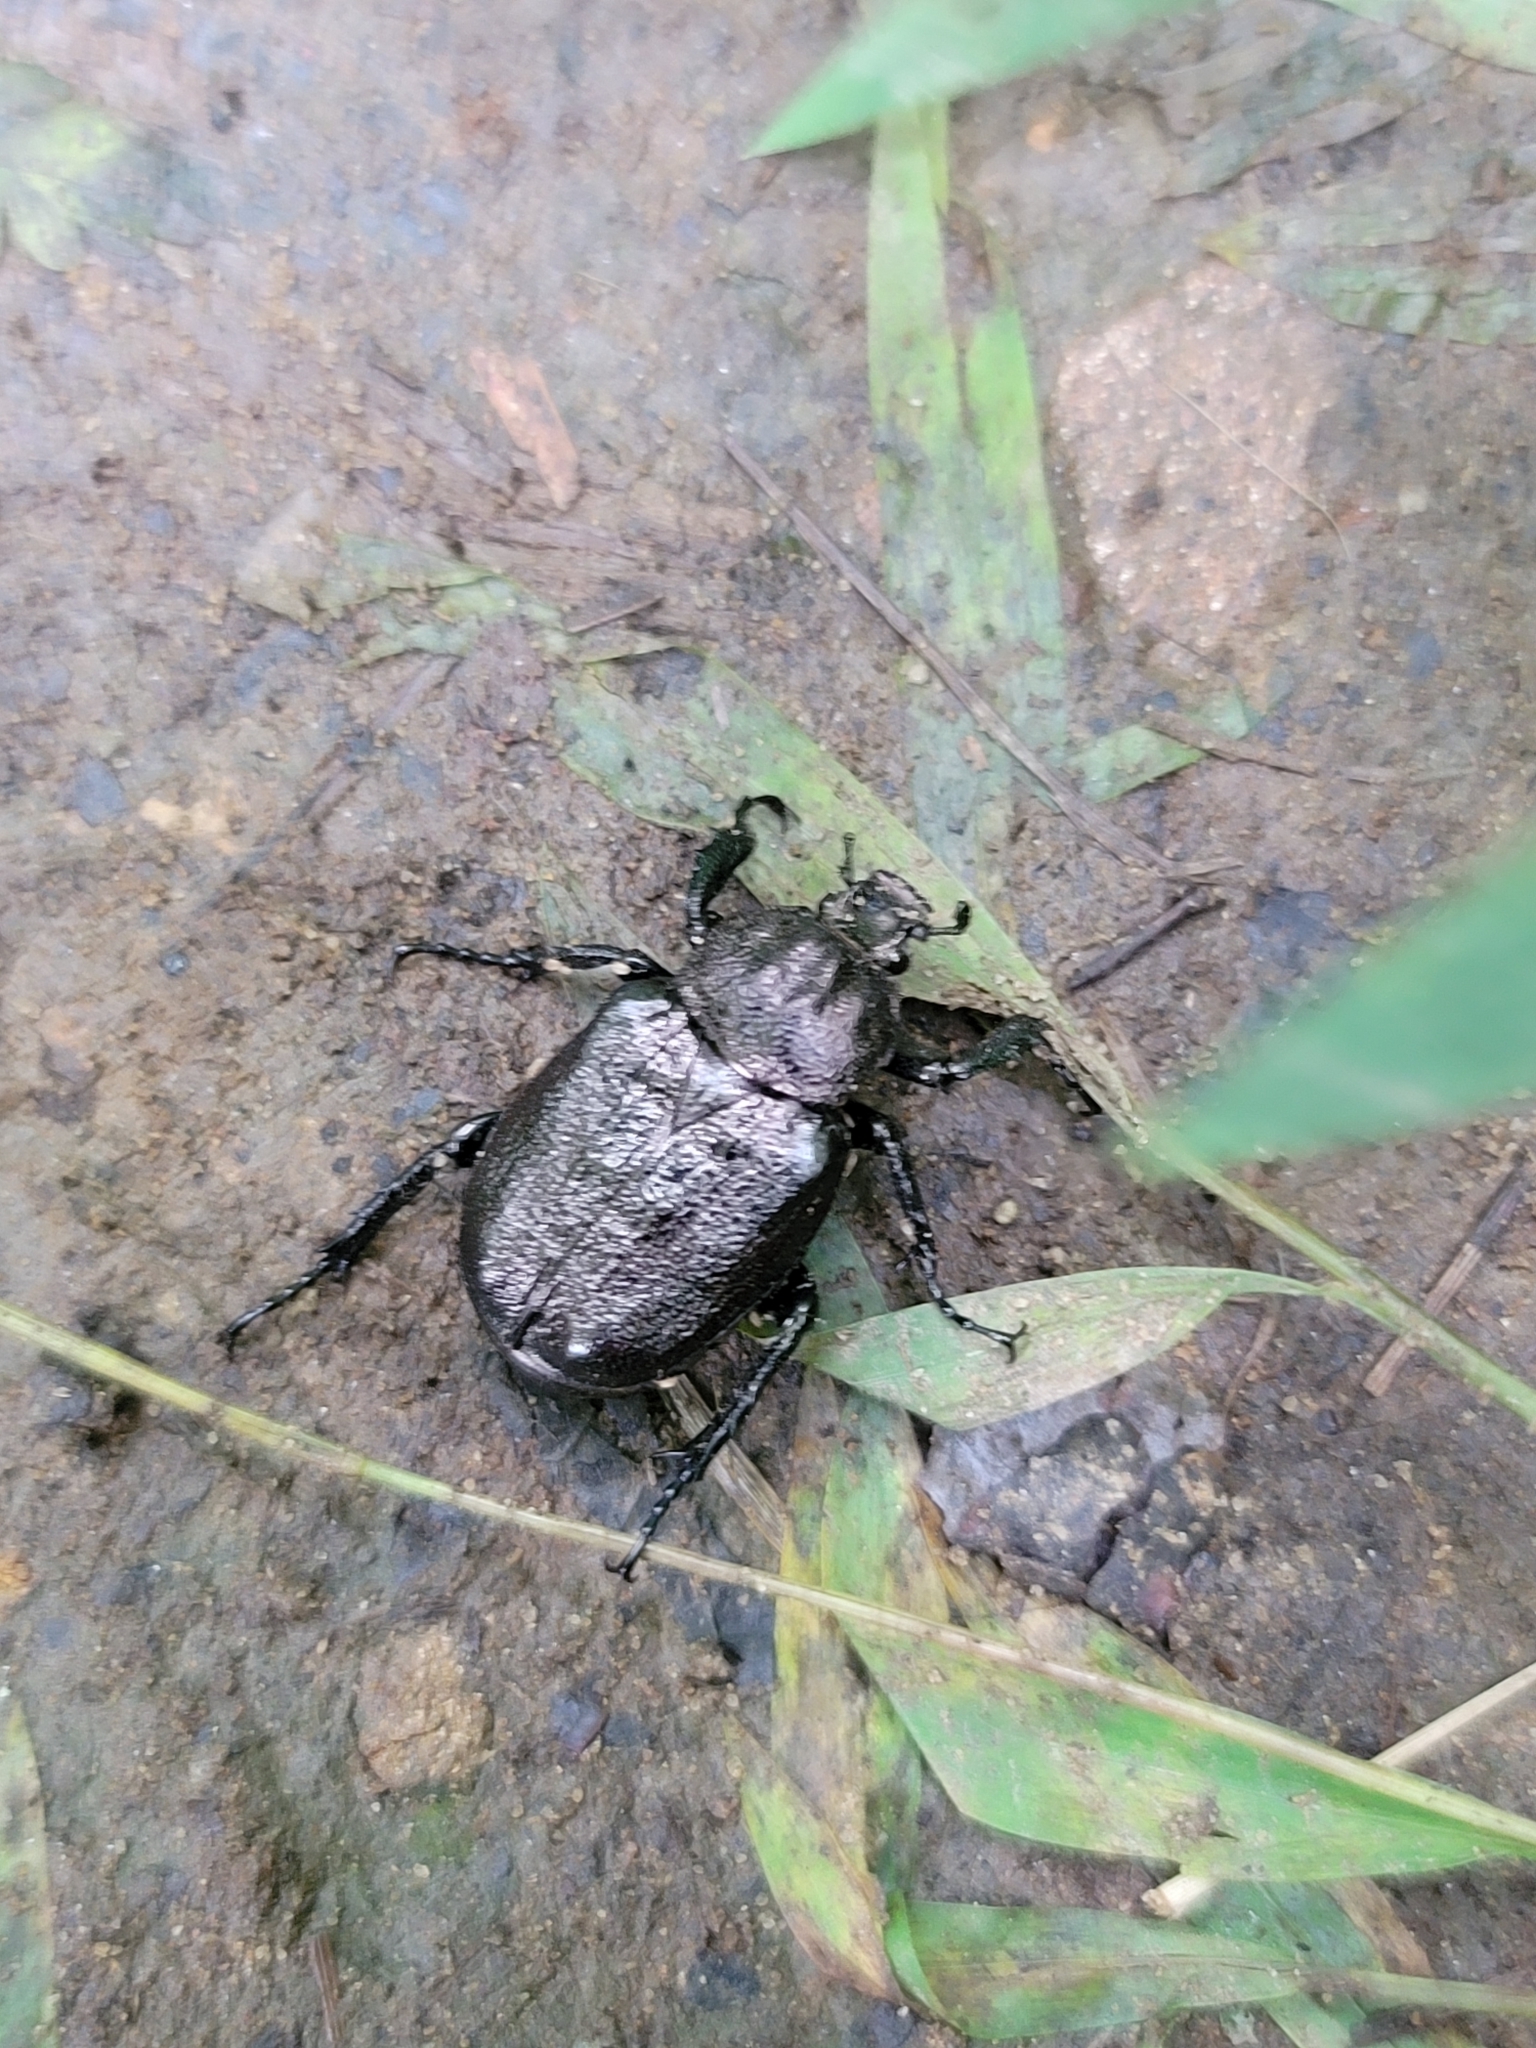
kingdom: Animalia
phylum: Arthropoda
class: Insecta
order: Coleoptera
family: Scarabaeidae
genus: Osmoderma
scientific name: Osmoderma scabra
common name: Rough hermit beetle
